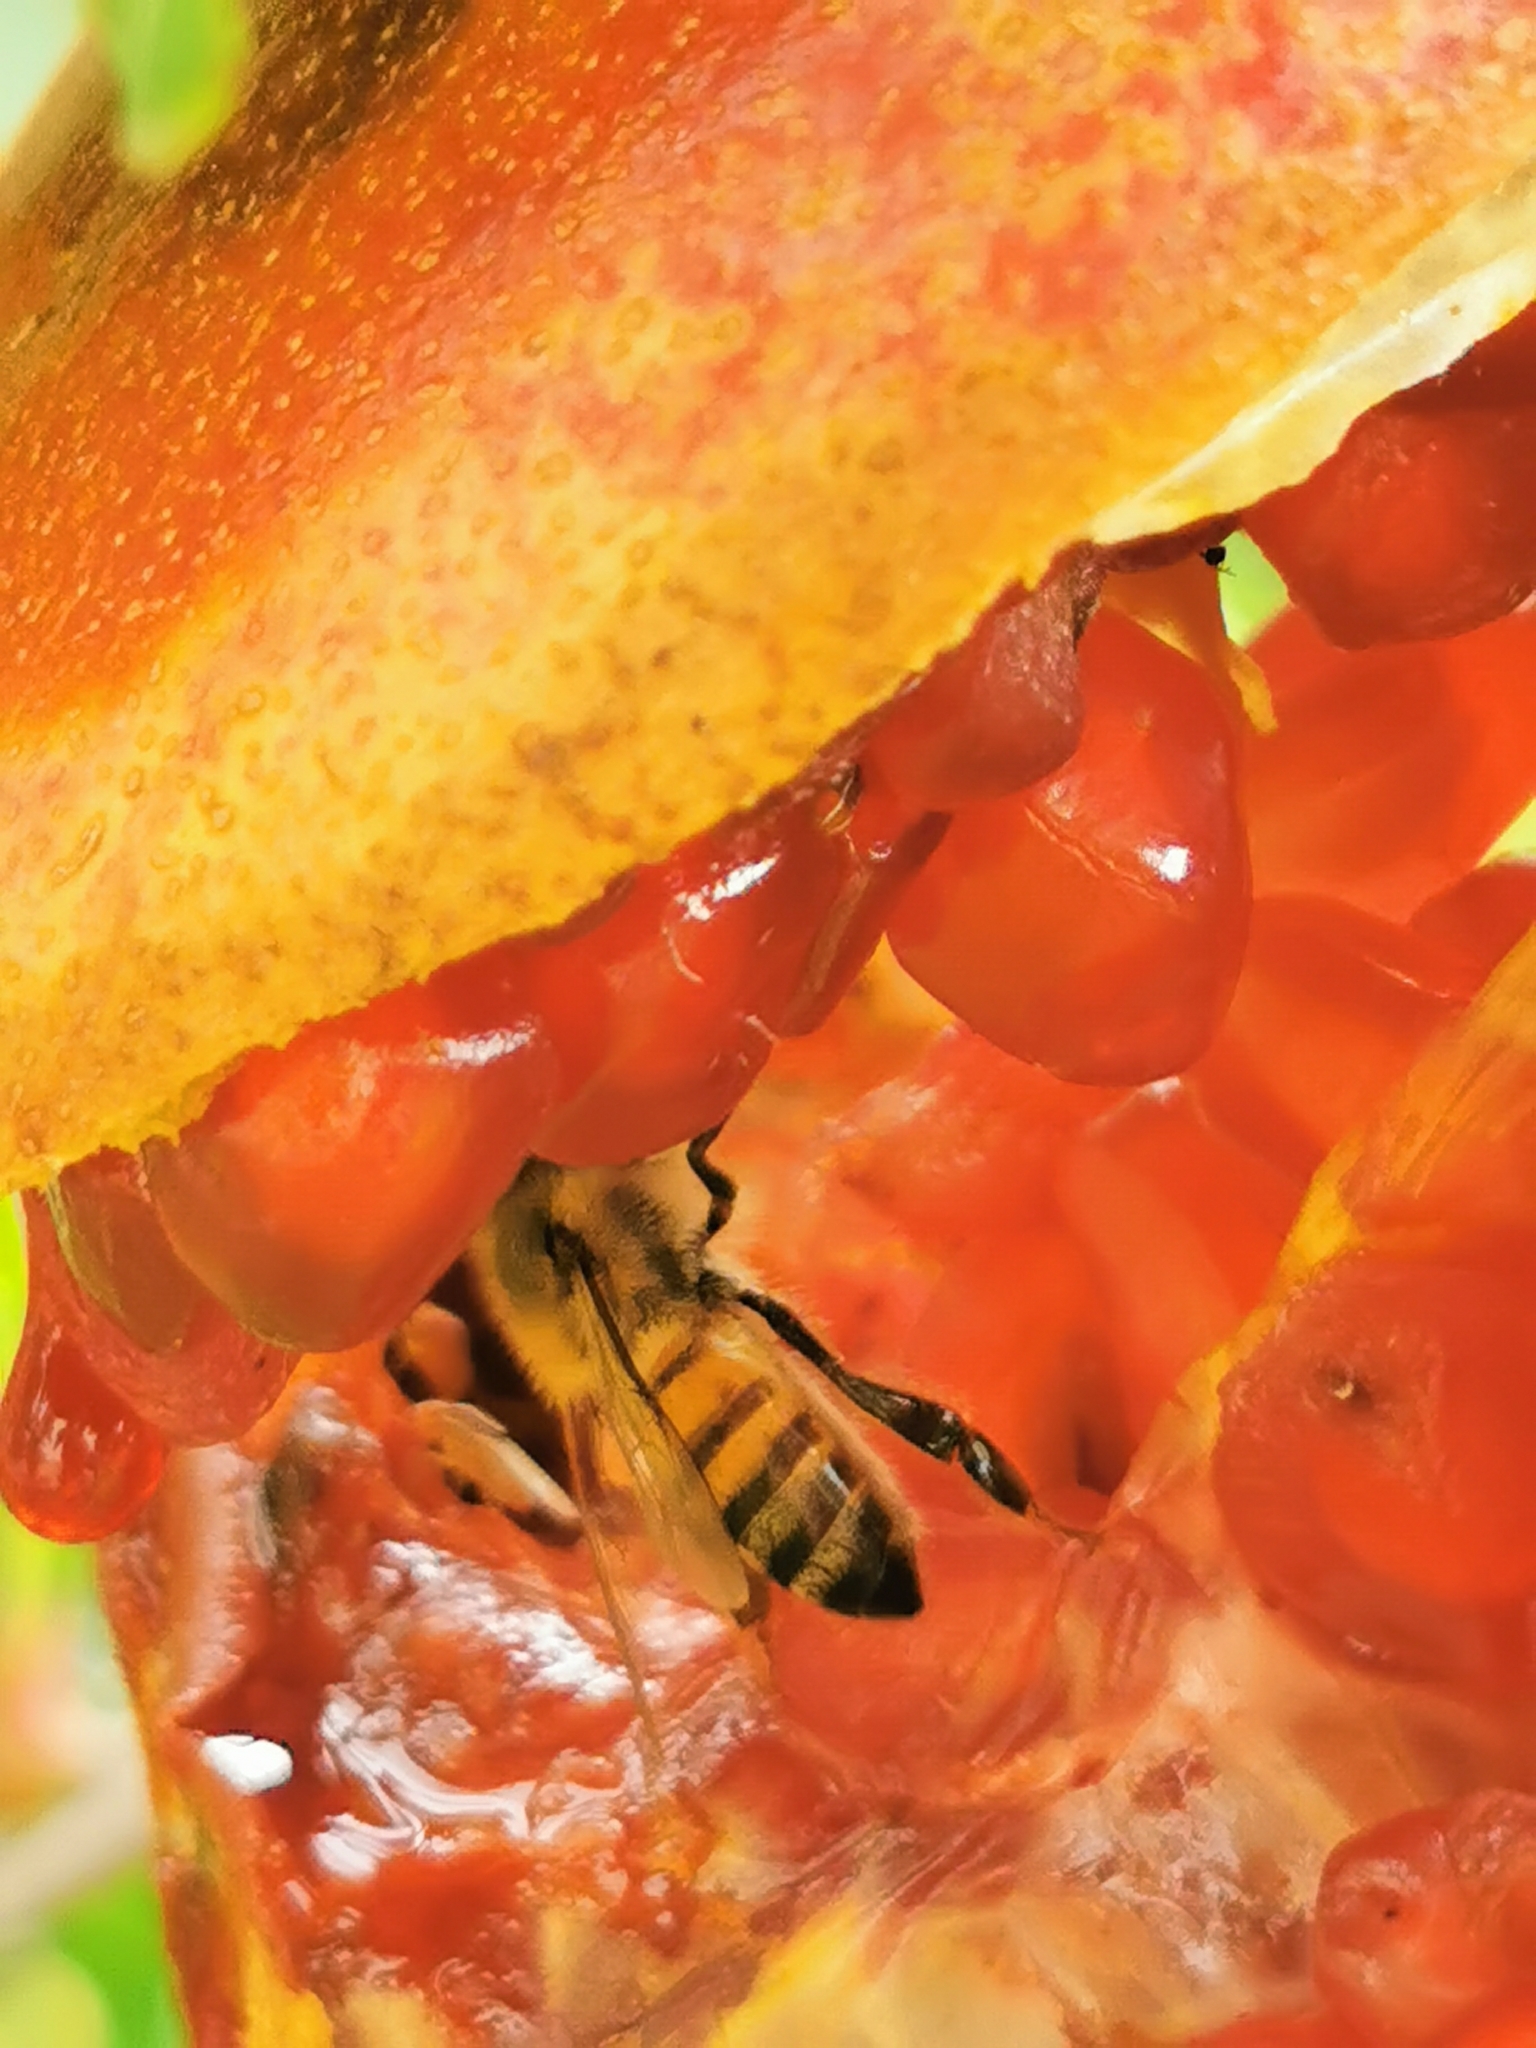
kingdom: Animalia
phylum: Arthropoda
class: Insecta
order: Hymenoptera
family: Apidae
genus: Apis
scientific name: Apis mellifera
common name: Honey bee
